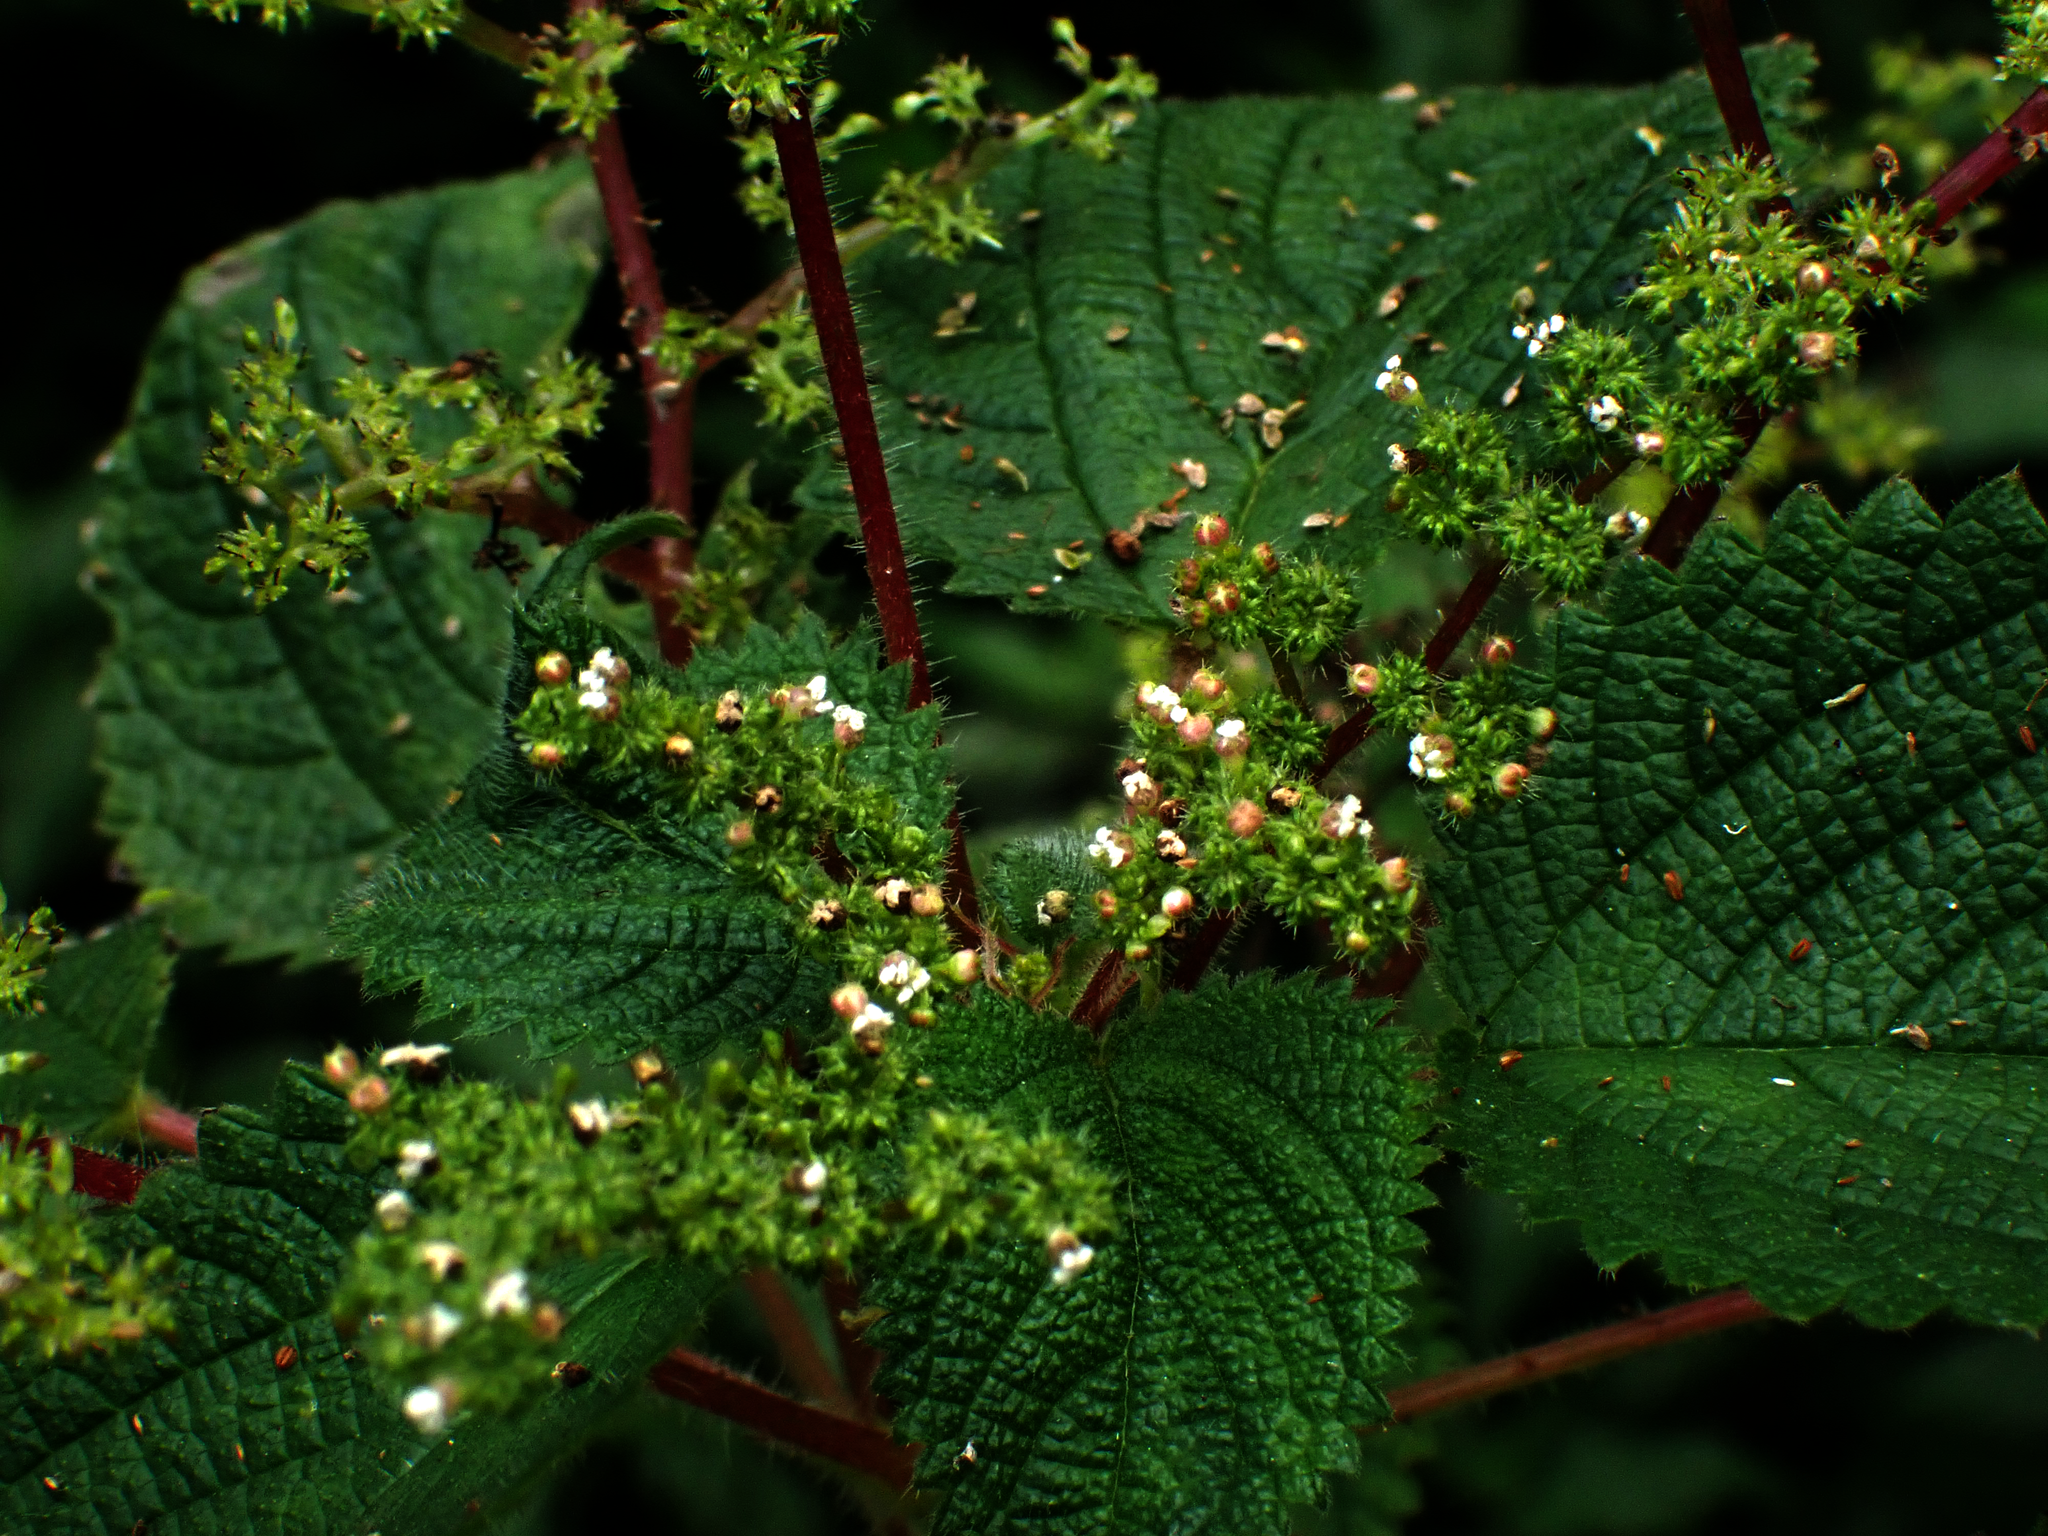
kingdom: Plantae
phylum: Tracheophyta
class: Magnoliopsida
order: Rosales
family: Urticaceae
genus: Boehmeria
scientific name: Boehmeria cylindrica
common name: Bog-hemp
